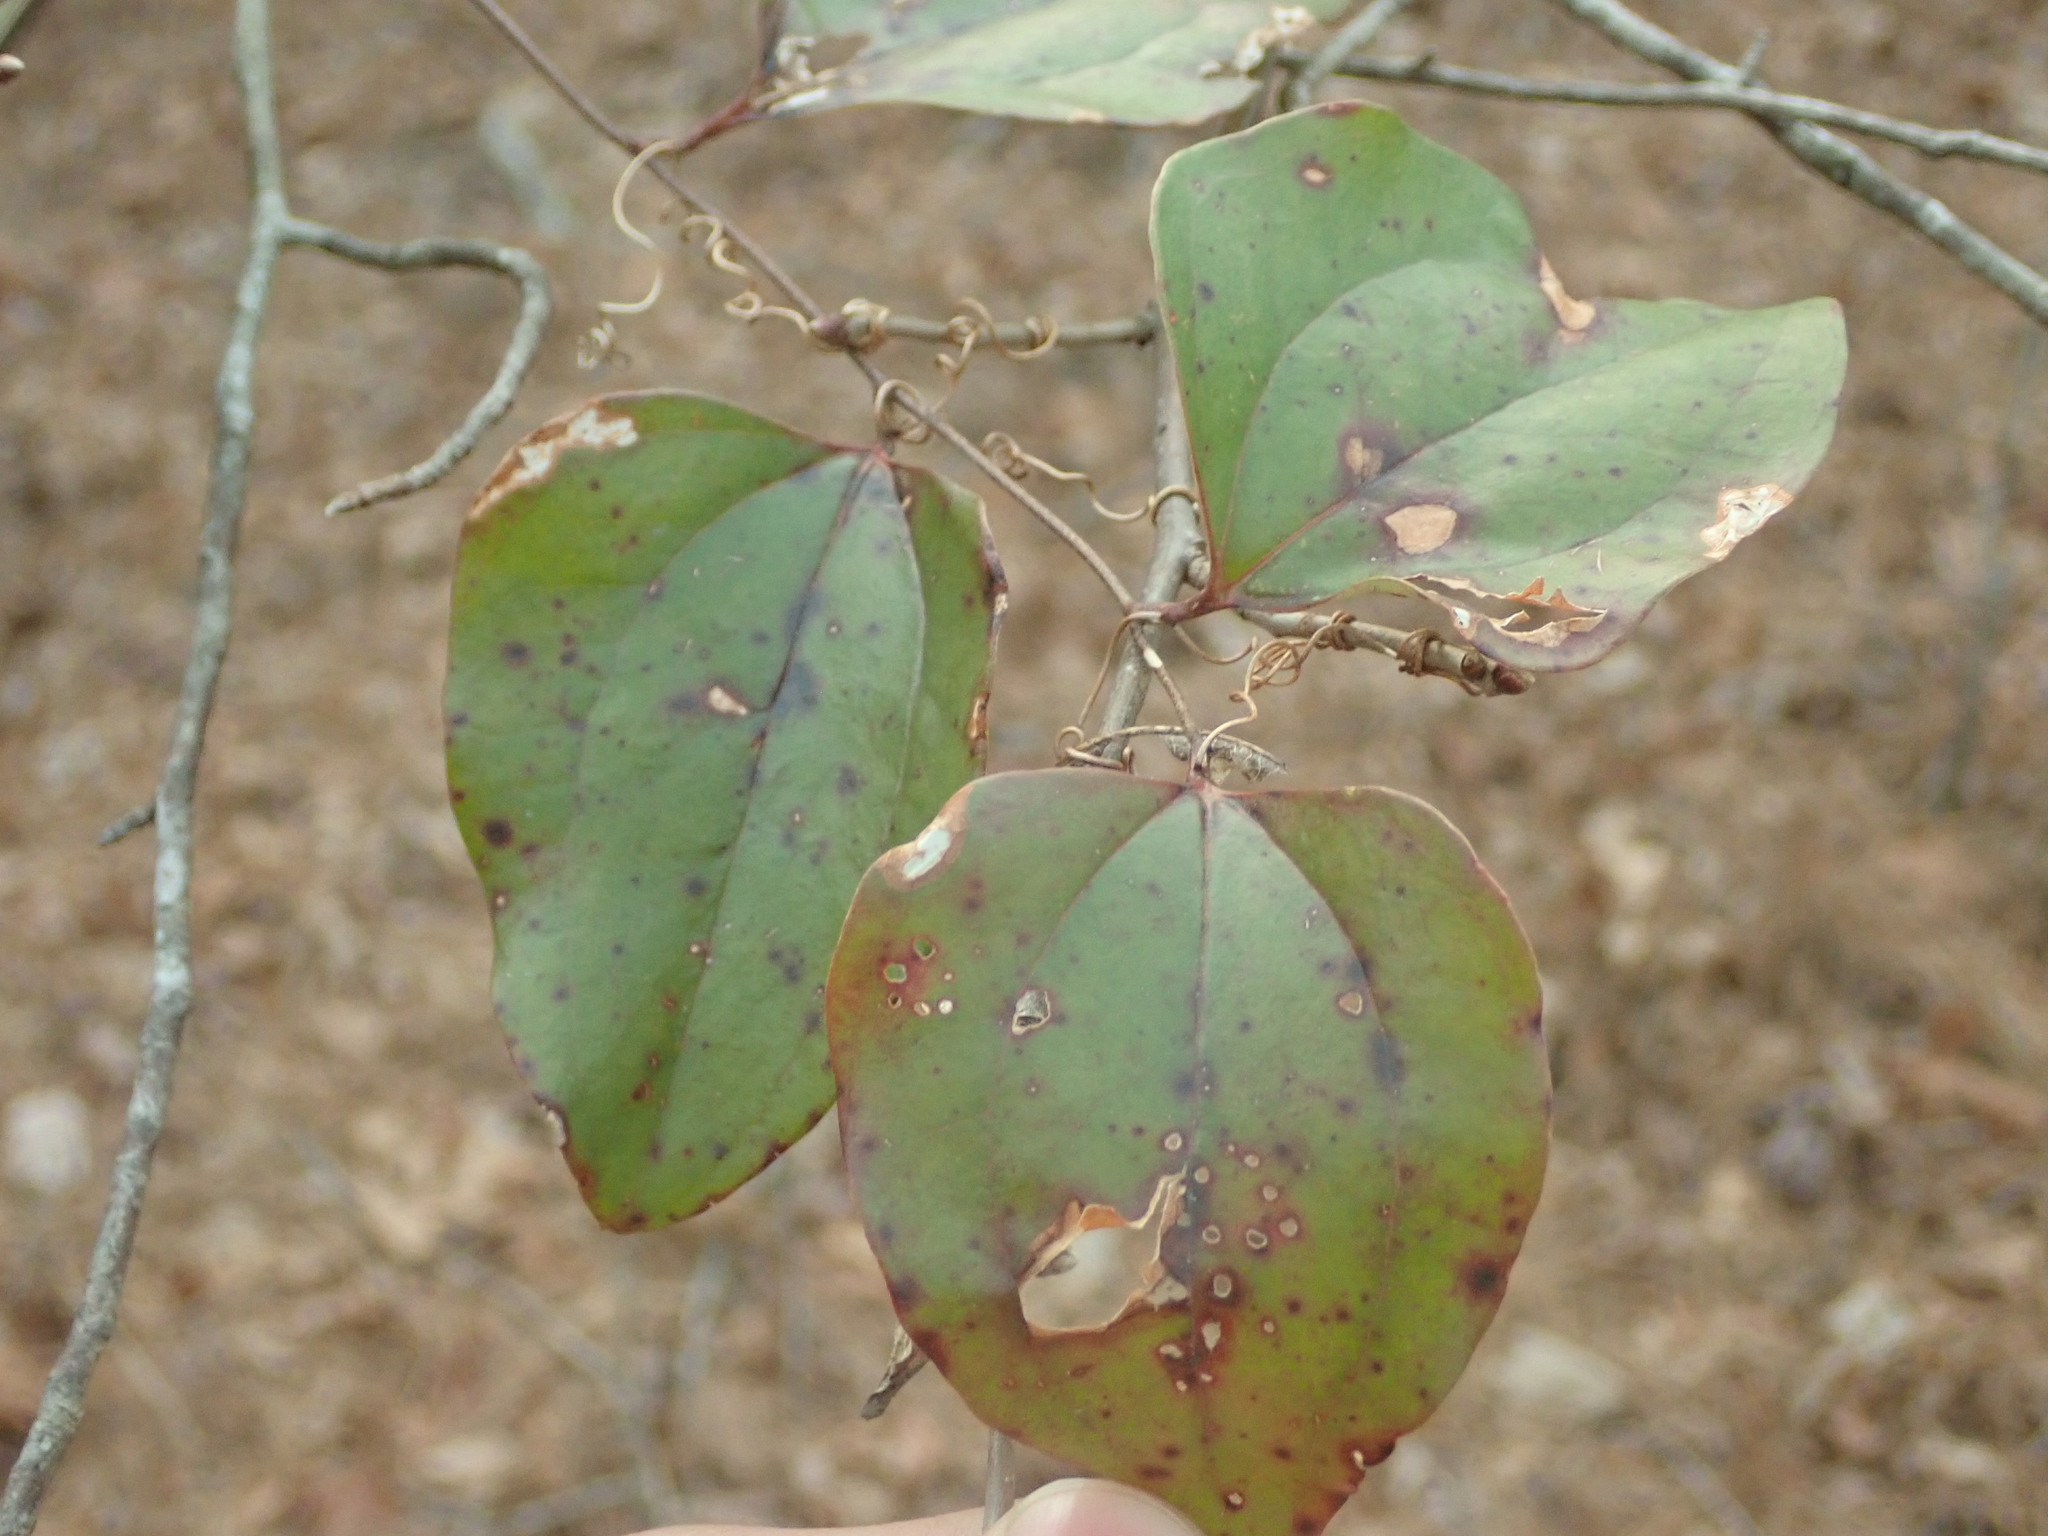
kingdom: Plantae
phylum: Tracheophyta
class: Liliopsida
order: Liliales
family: Smilacaceae
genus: Smilax
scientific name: Smilax glauca
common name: Cat greenbrier
